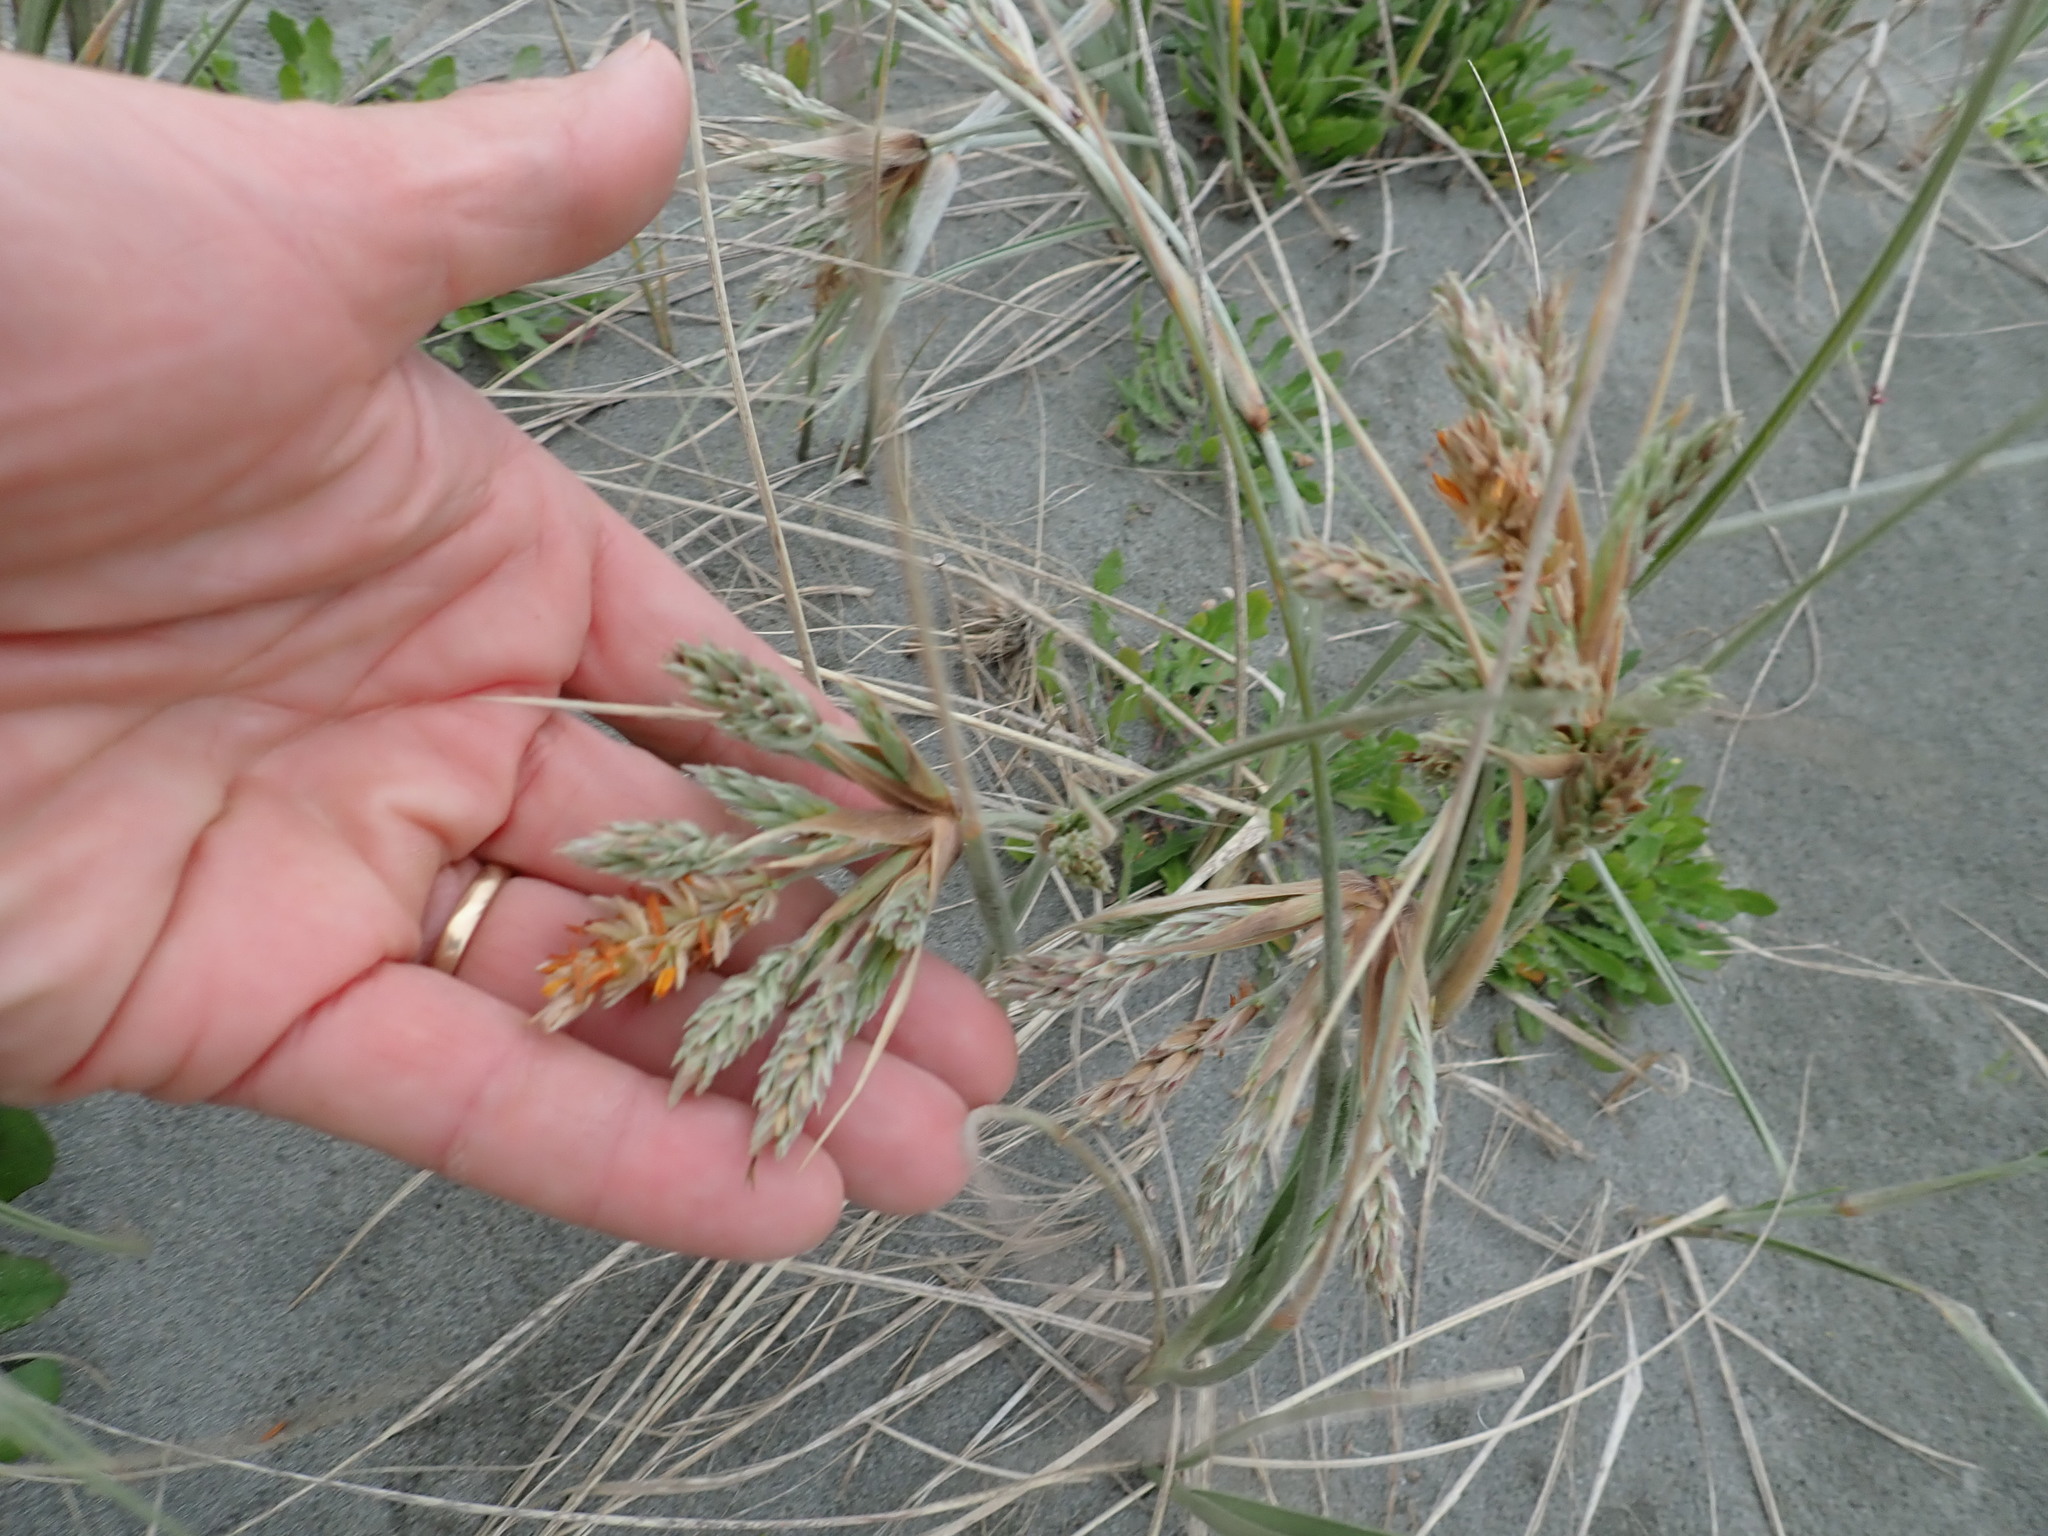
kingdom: Plantae
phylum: Tracheophyta
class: Liliopsida
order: Poales
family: Poaceae
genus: Spinifex
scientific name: Spinifex sericeus
